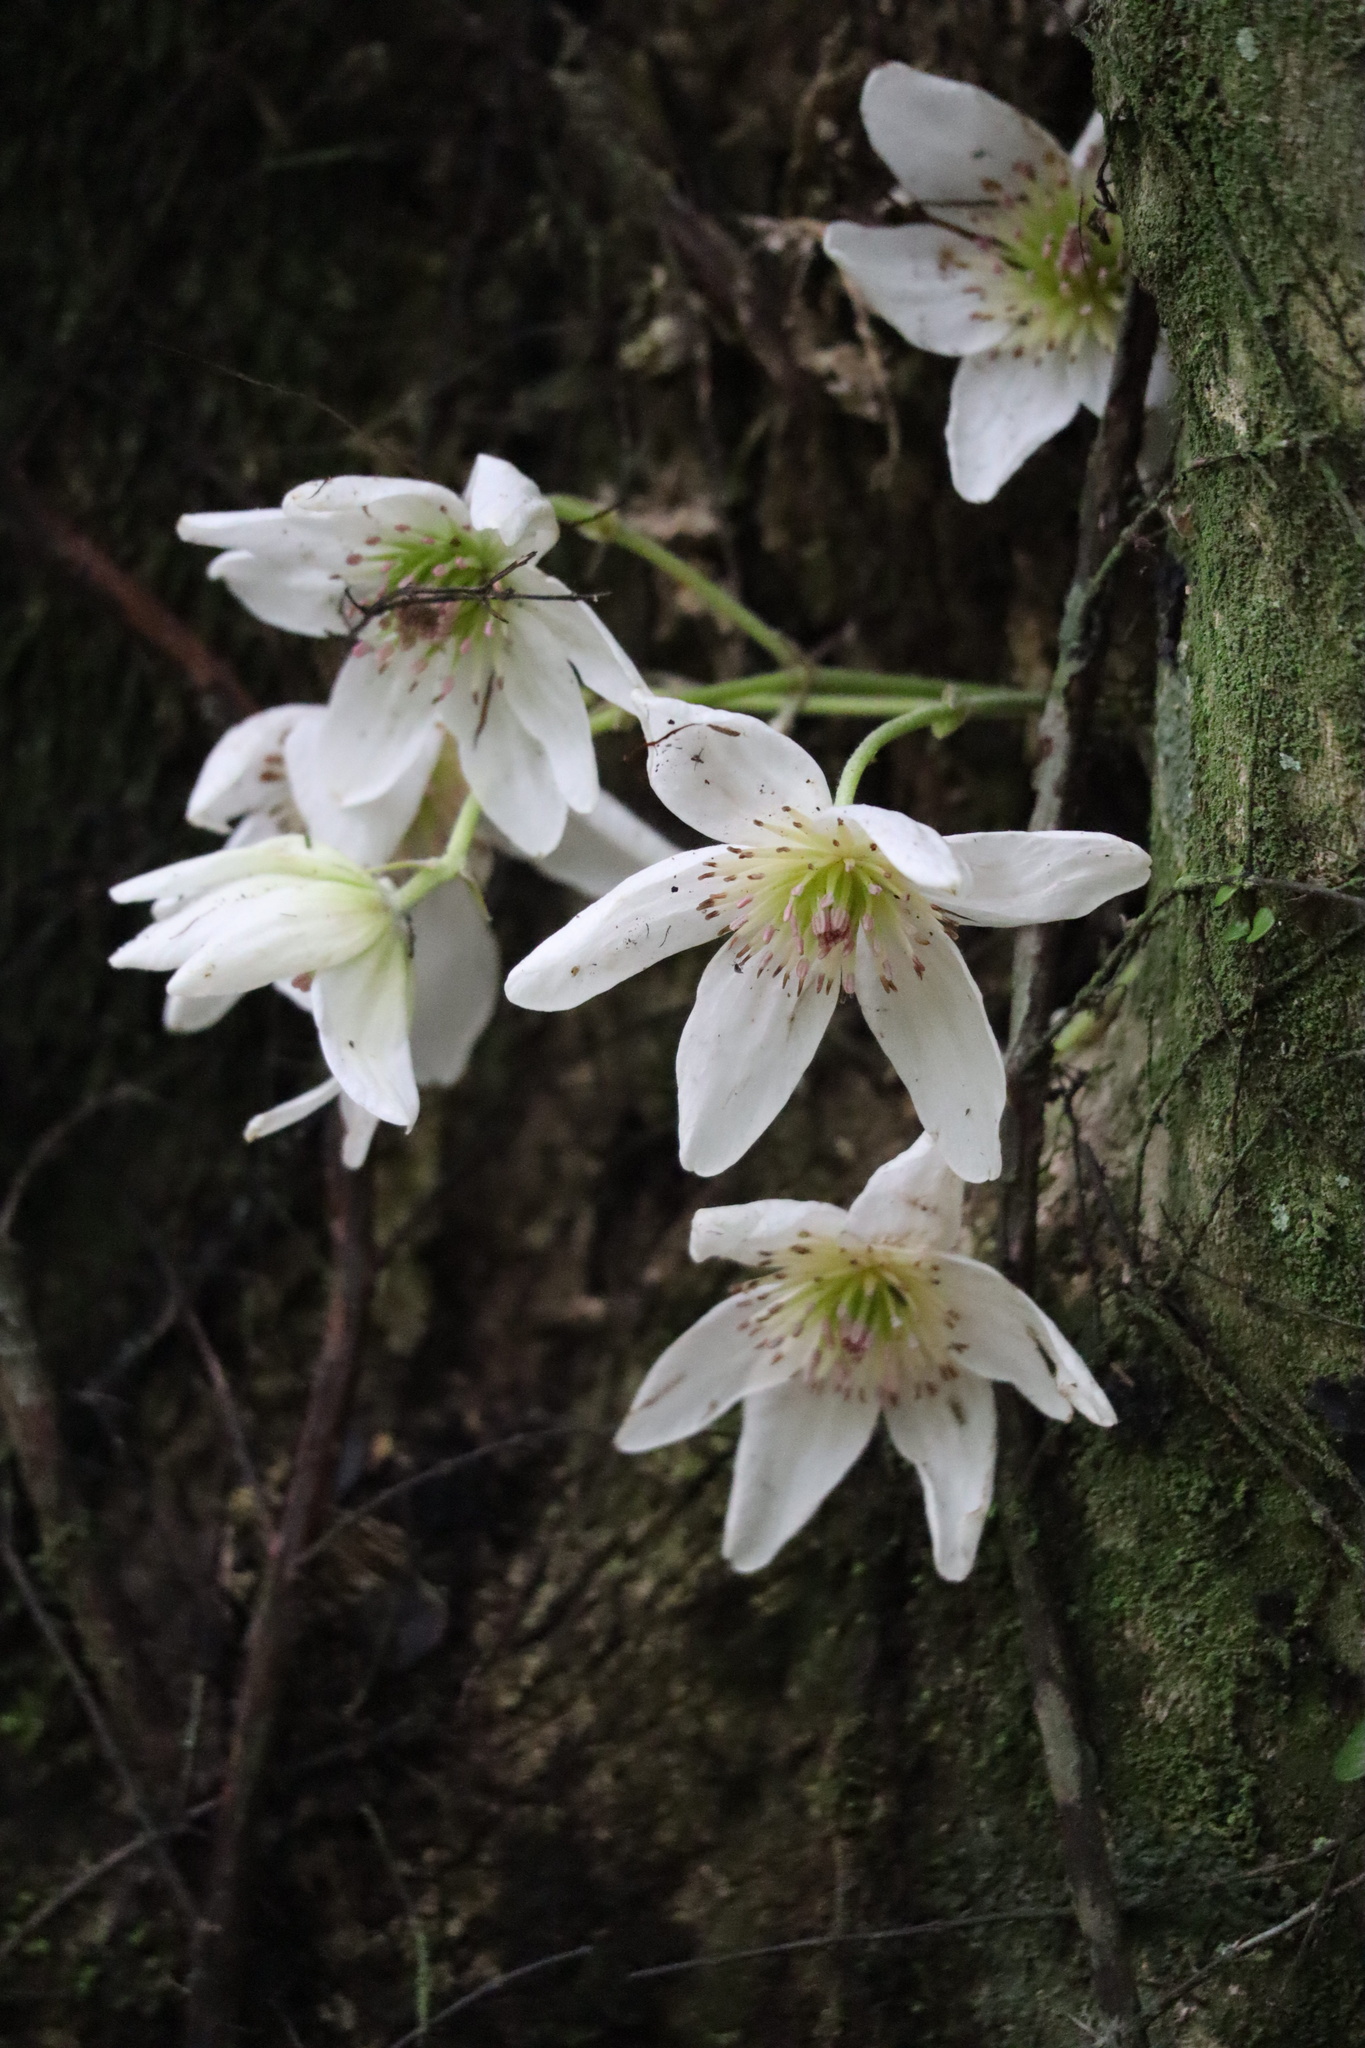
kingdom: Plantae
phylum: Tracheophyta
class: Magnoliopsida
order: Ranunculales
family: Ranunculaceae
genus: Clematis
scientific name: Clematis paniculata
